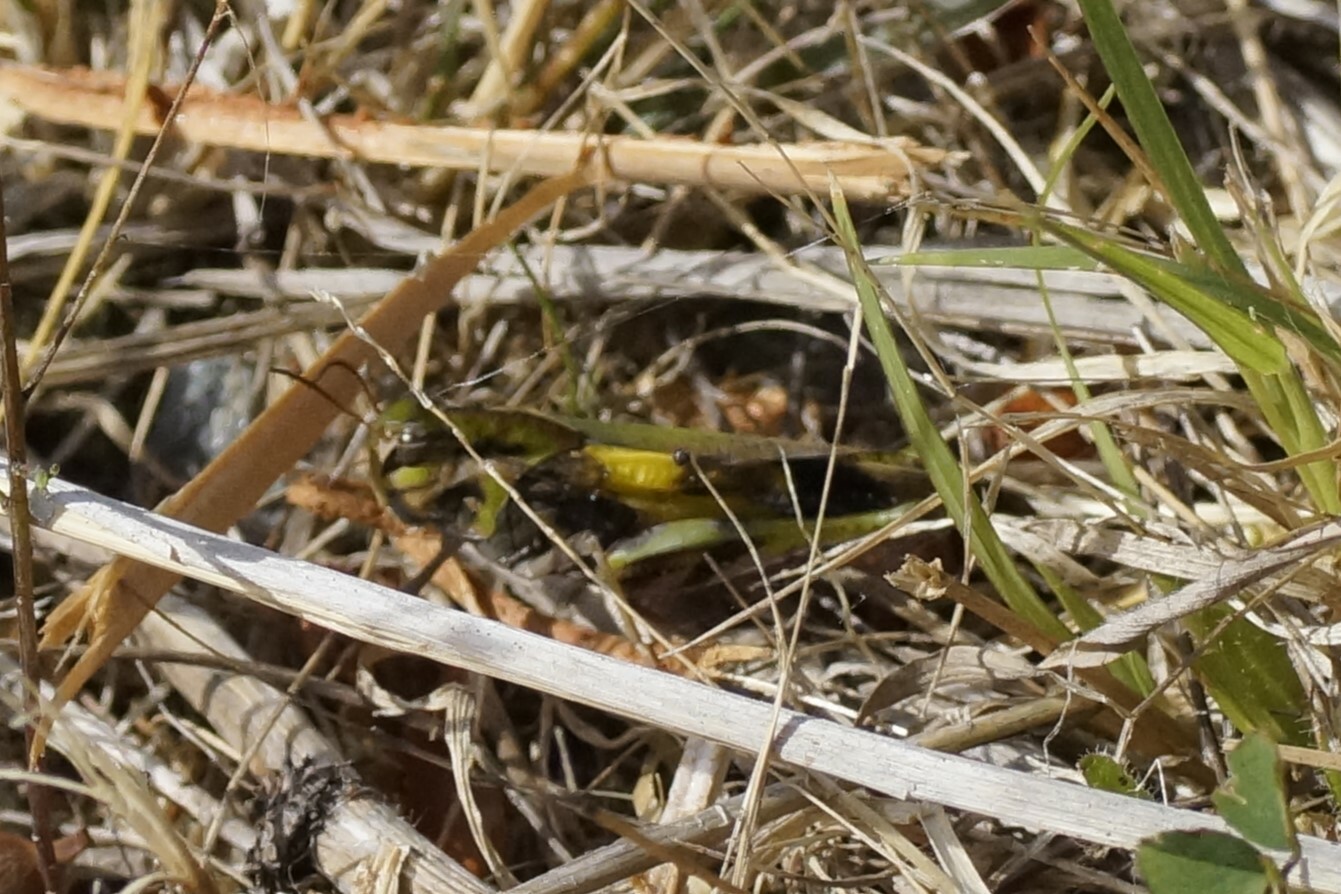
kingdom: Animalia
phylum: Arthropoda
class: Insecta
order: Orthoptera
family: Acrididae
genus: Gastrimargus
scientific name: Gastrimargus musicus
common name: Yellow-winged locust
